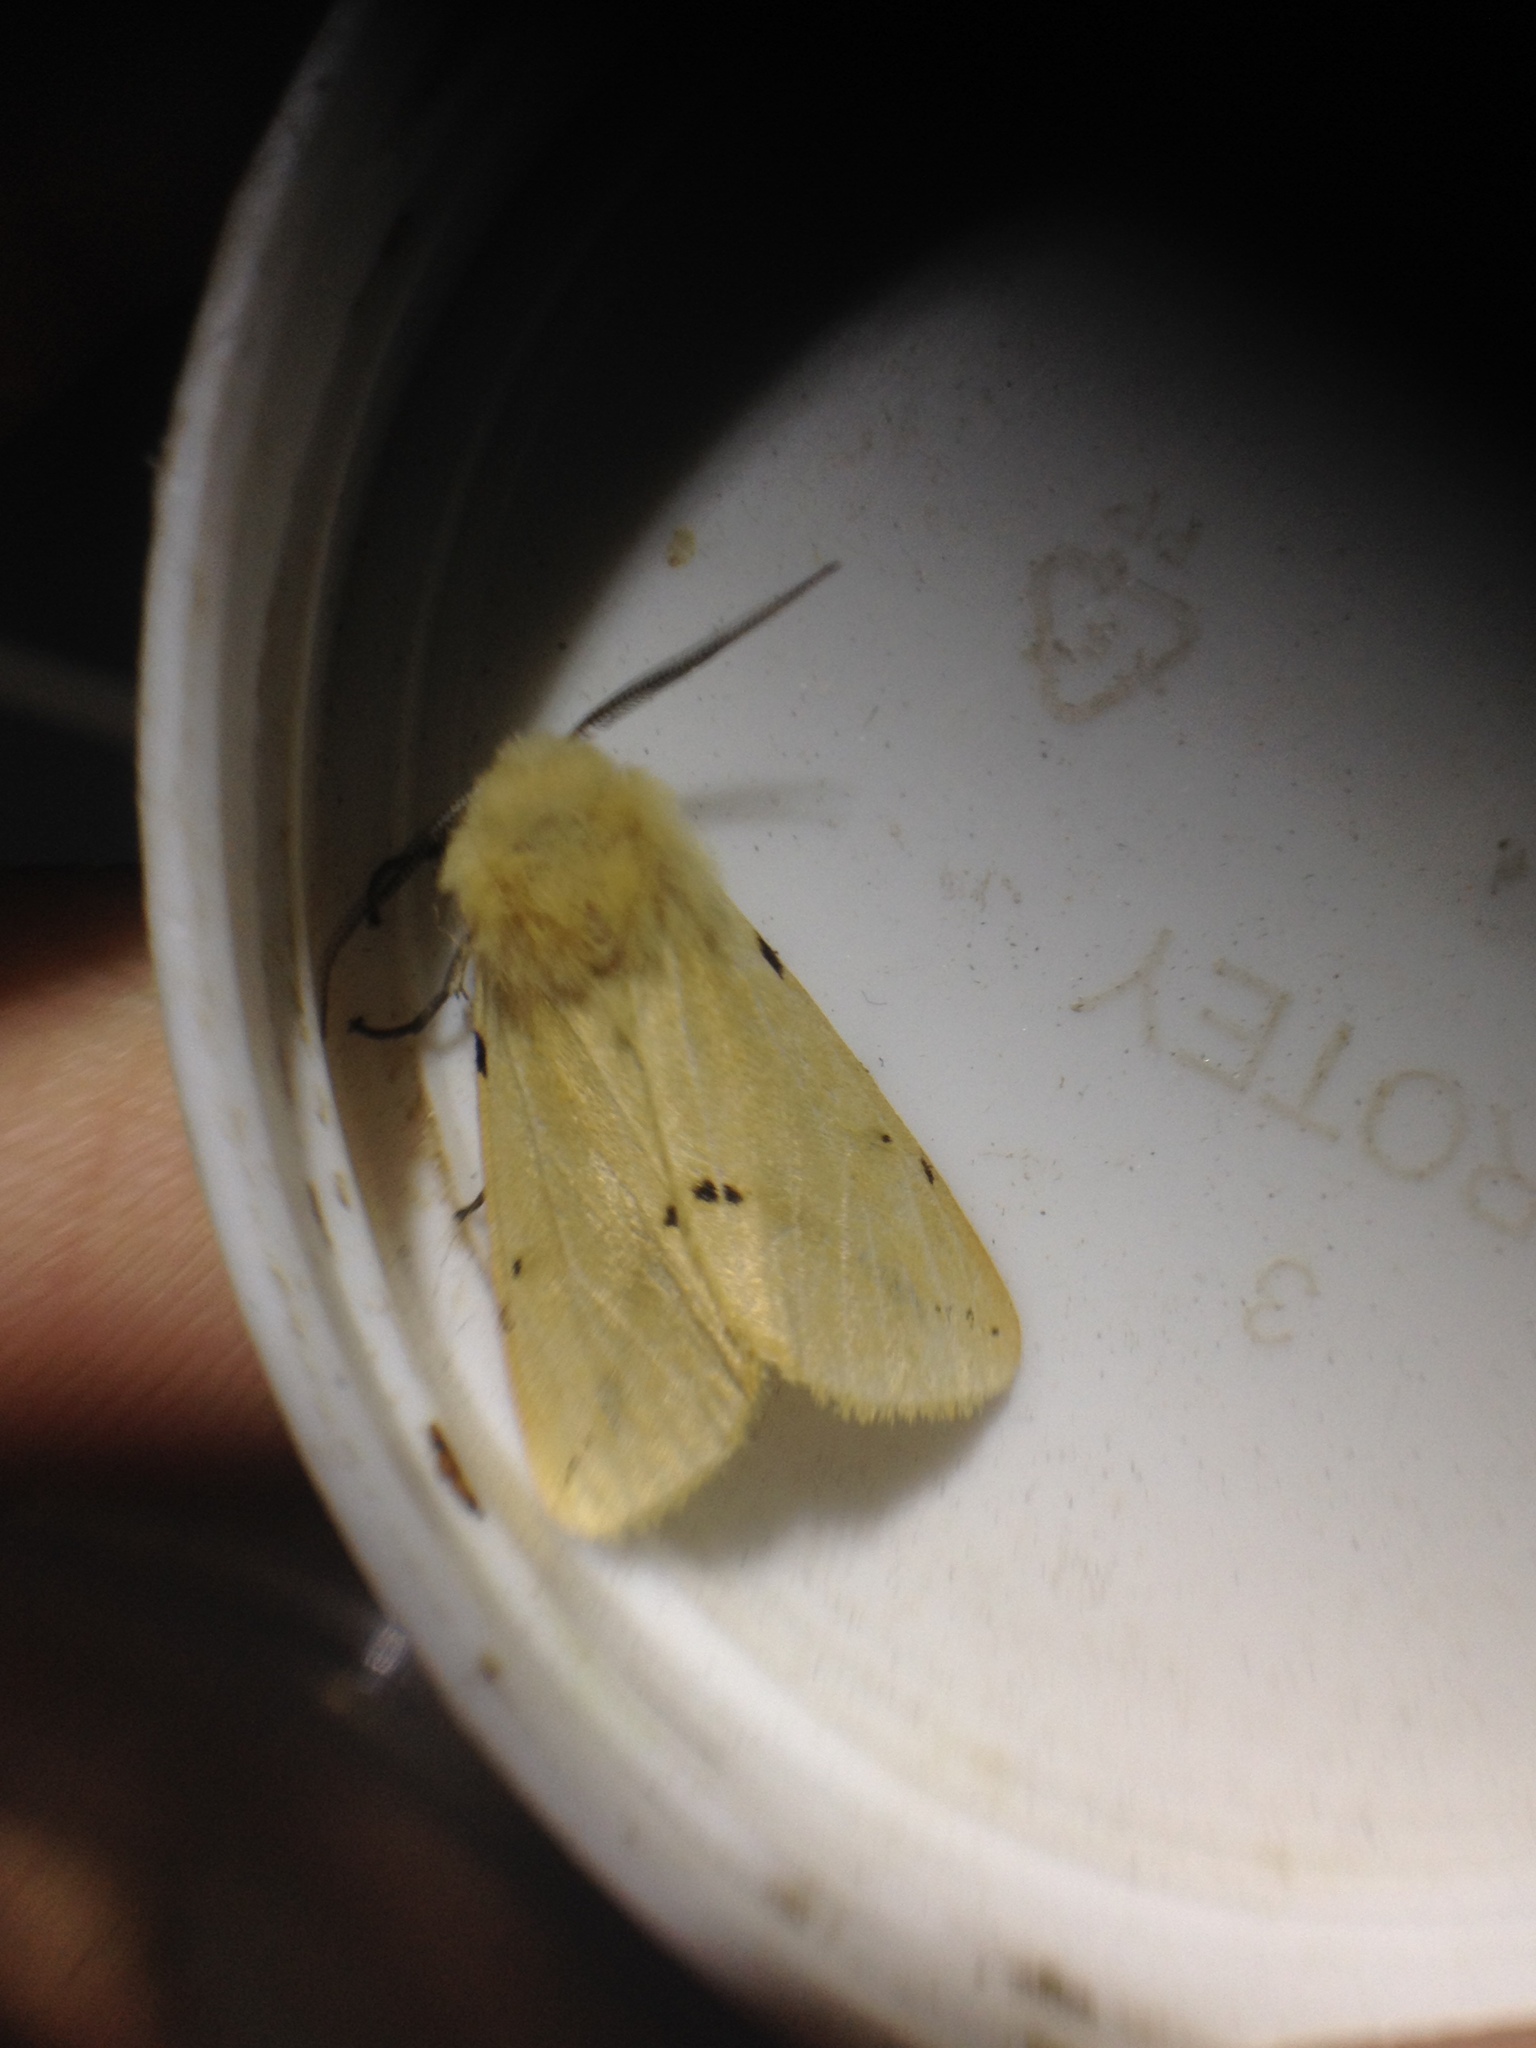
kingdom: Animalia
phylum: Arthropoda
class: Insecta
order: Lepidoptera
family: Erebidae
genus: Spilarctia
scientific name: Spilarctia lutea
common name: Buff ermine
